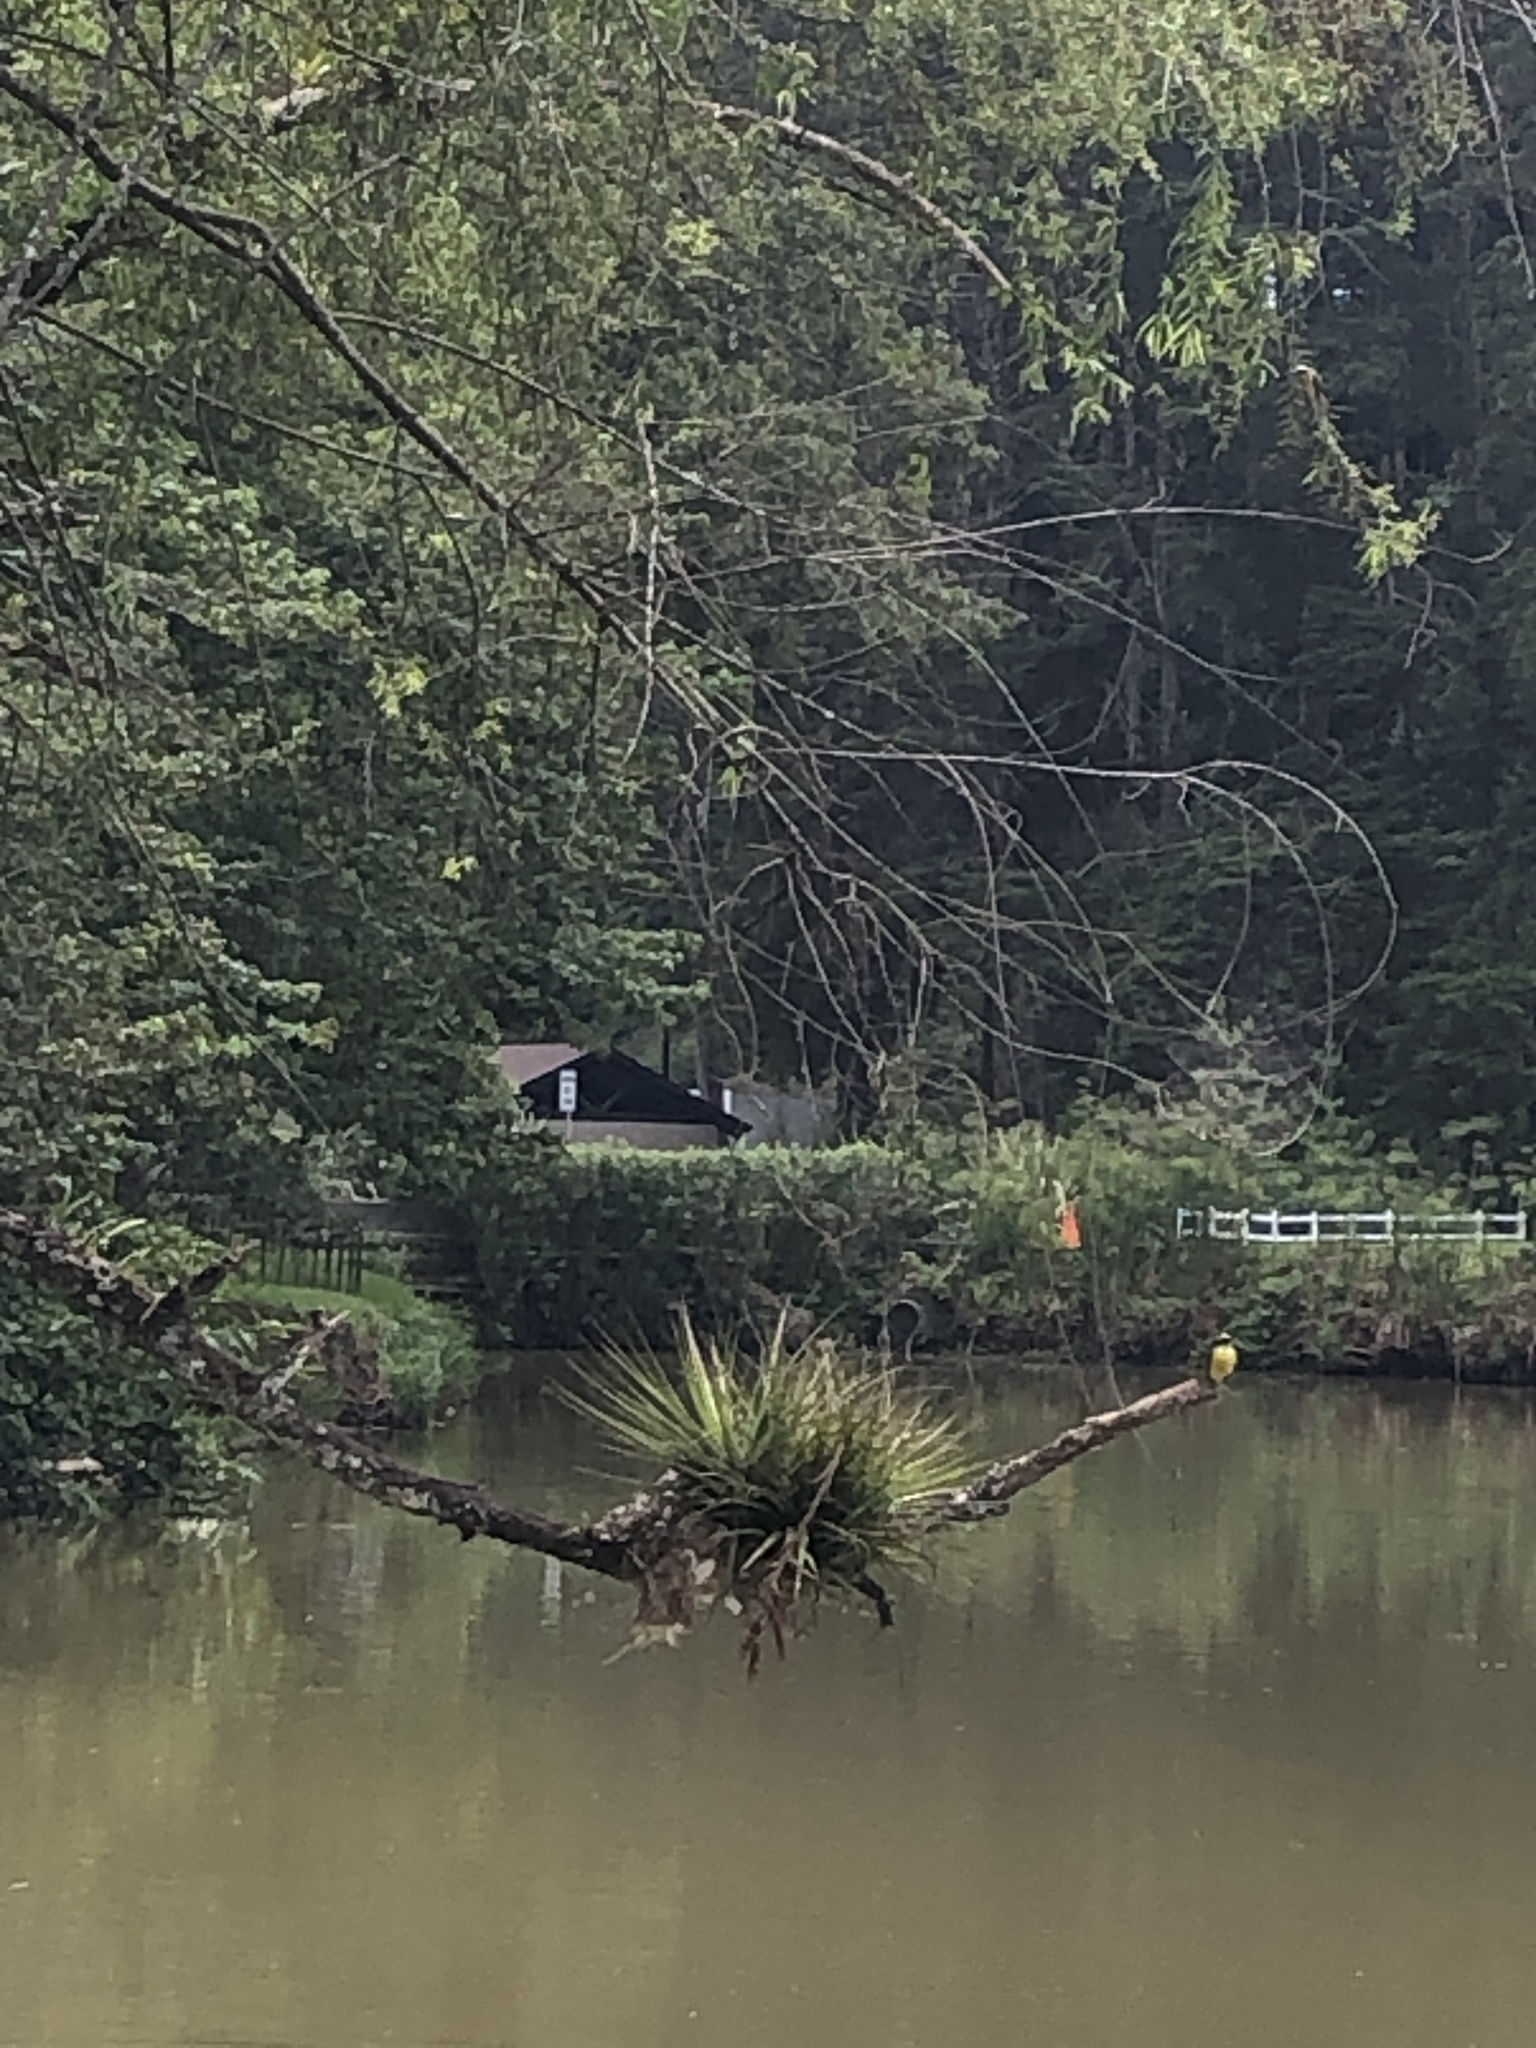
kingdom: Animalia
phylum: Chordata
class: Aves
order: Passeriformes
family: Tyrannidae
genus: Myiozetetes
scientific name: Myiozetetes similis
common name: Social flycatcher
